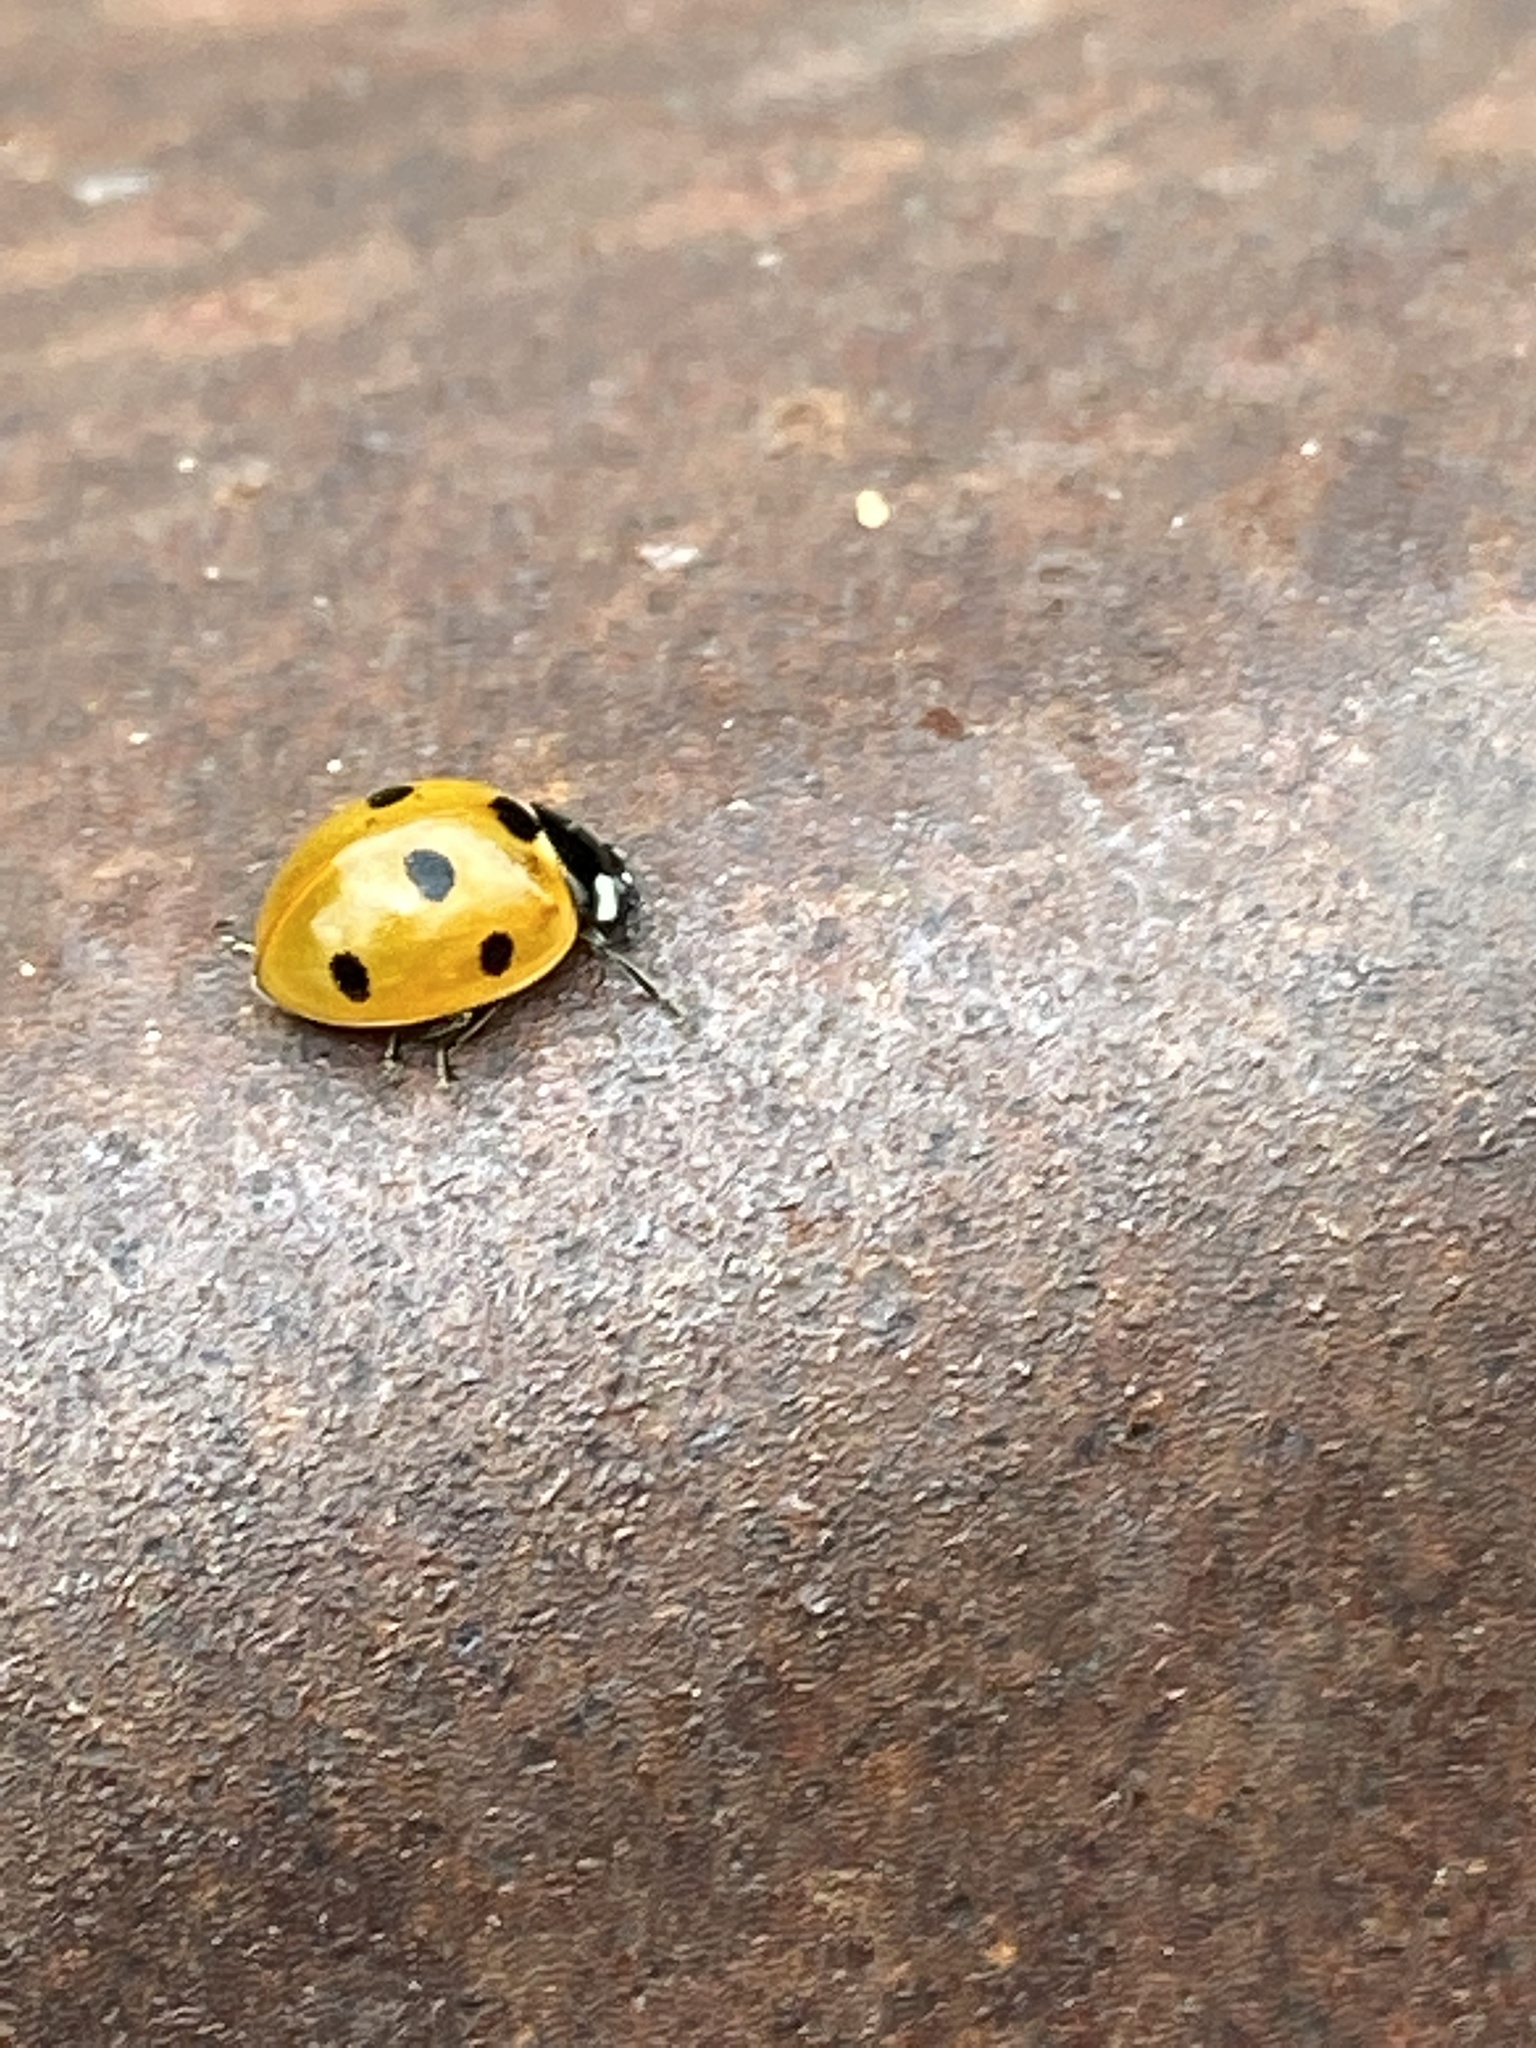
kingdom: Animalia
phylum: Arthropoda
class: Insecta
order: Coleoptera
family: Coccinellidae
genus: Coccinella
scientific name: Coccinella septempunctata
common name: Sevenspotted lady beetle
